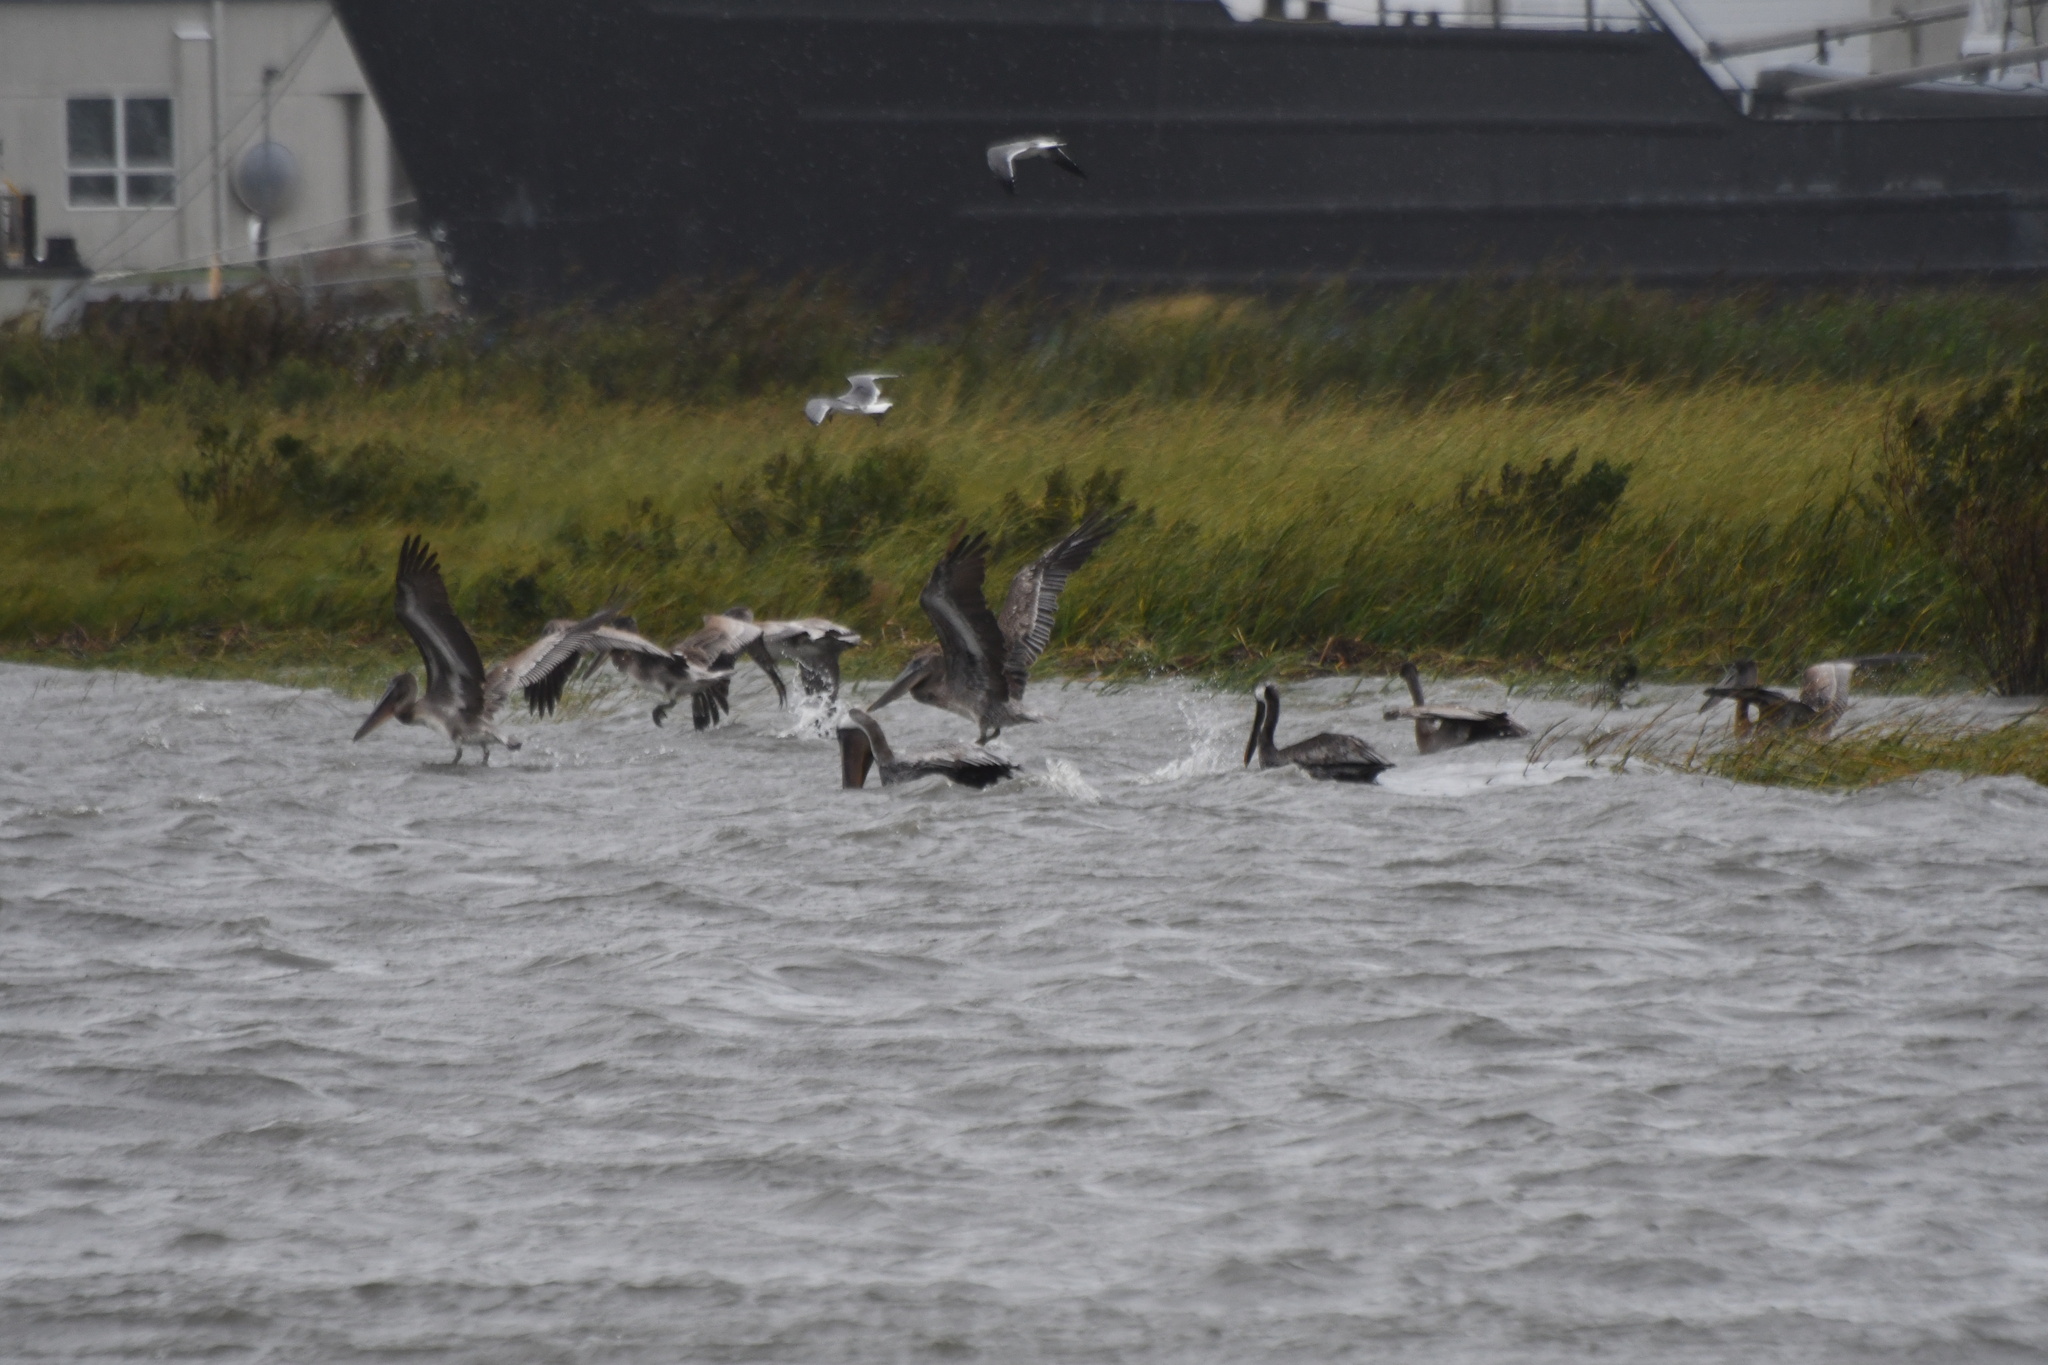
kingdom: Animalia
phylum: Chordata
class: Aves
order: Pelecaniformes
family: Pelecanidae
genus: Pelecanus
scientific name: Pelecanus occidentalis
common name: Brown pelican
